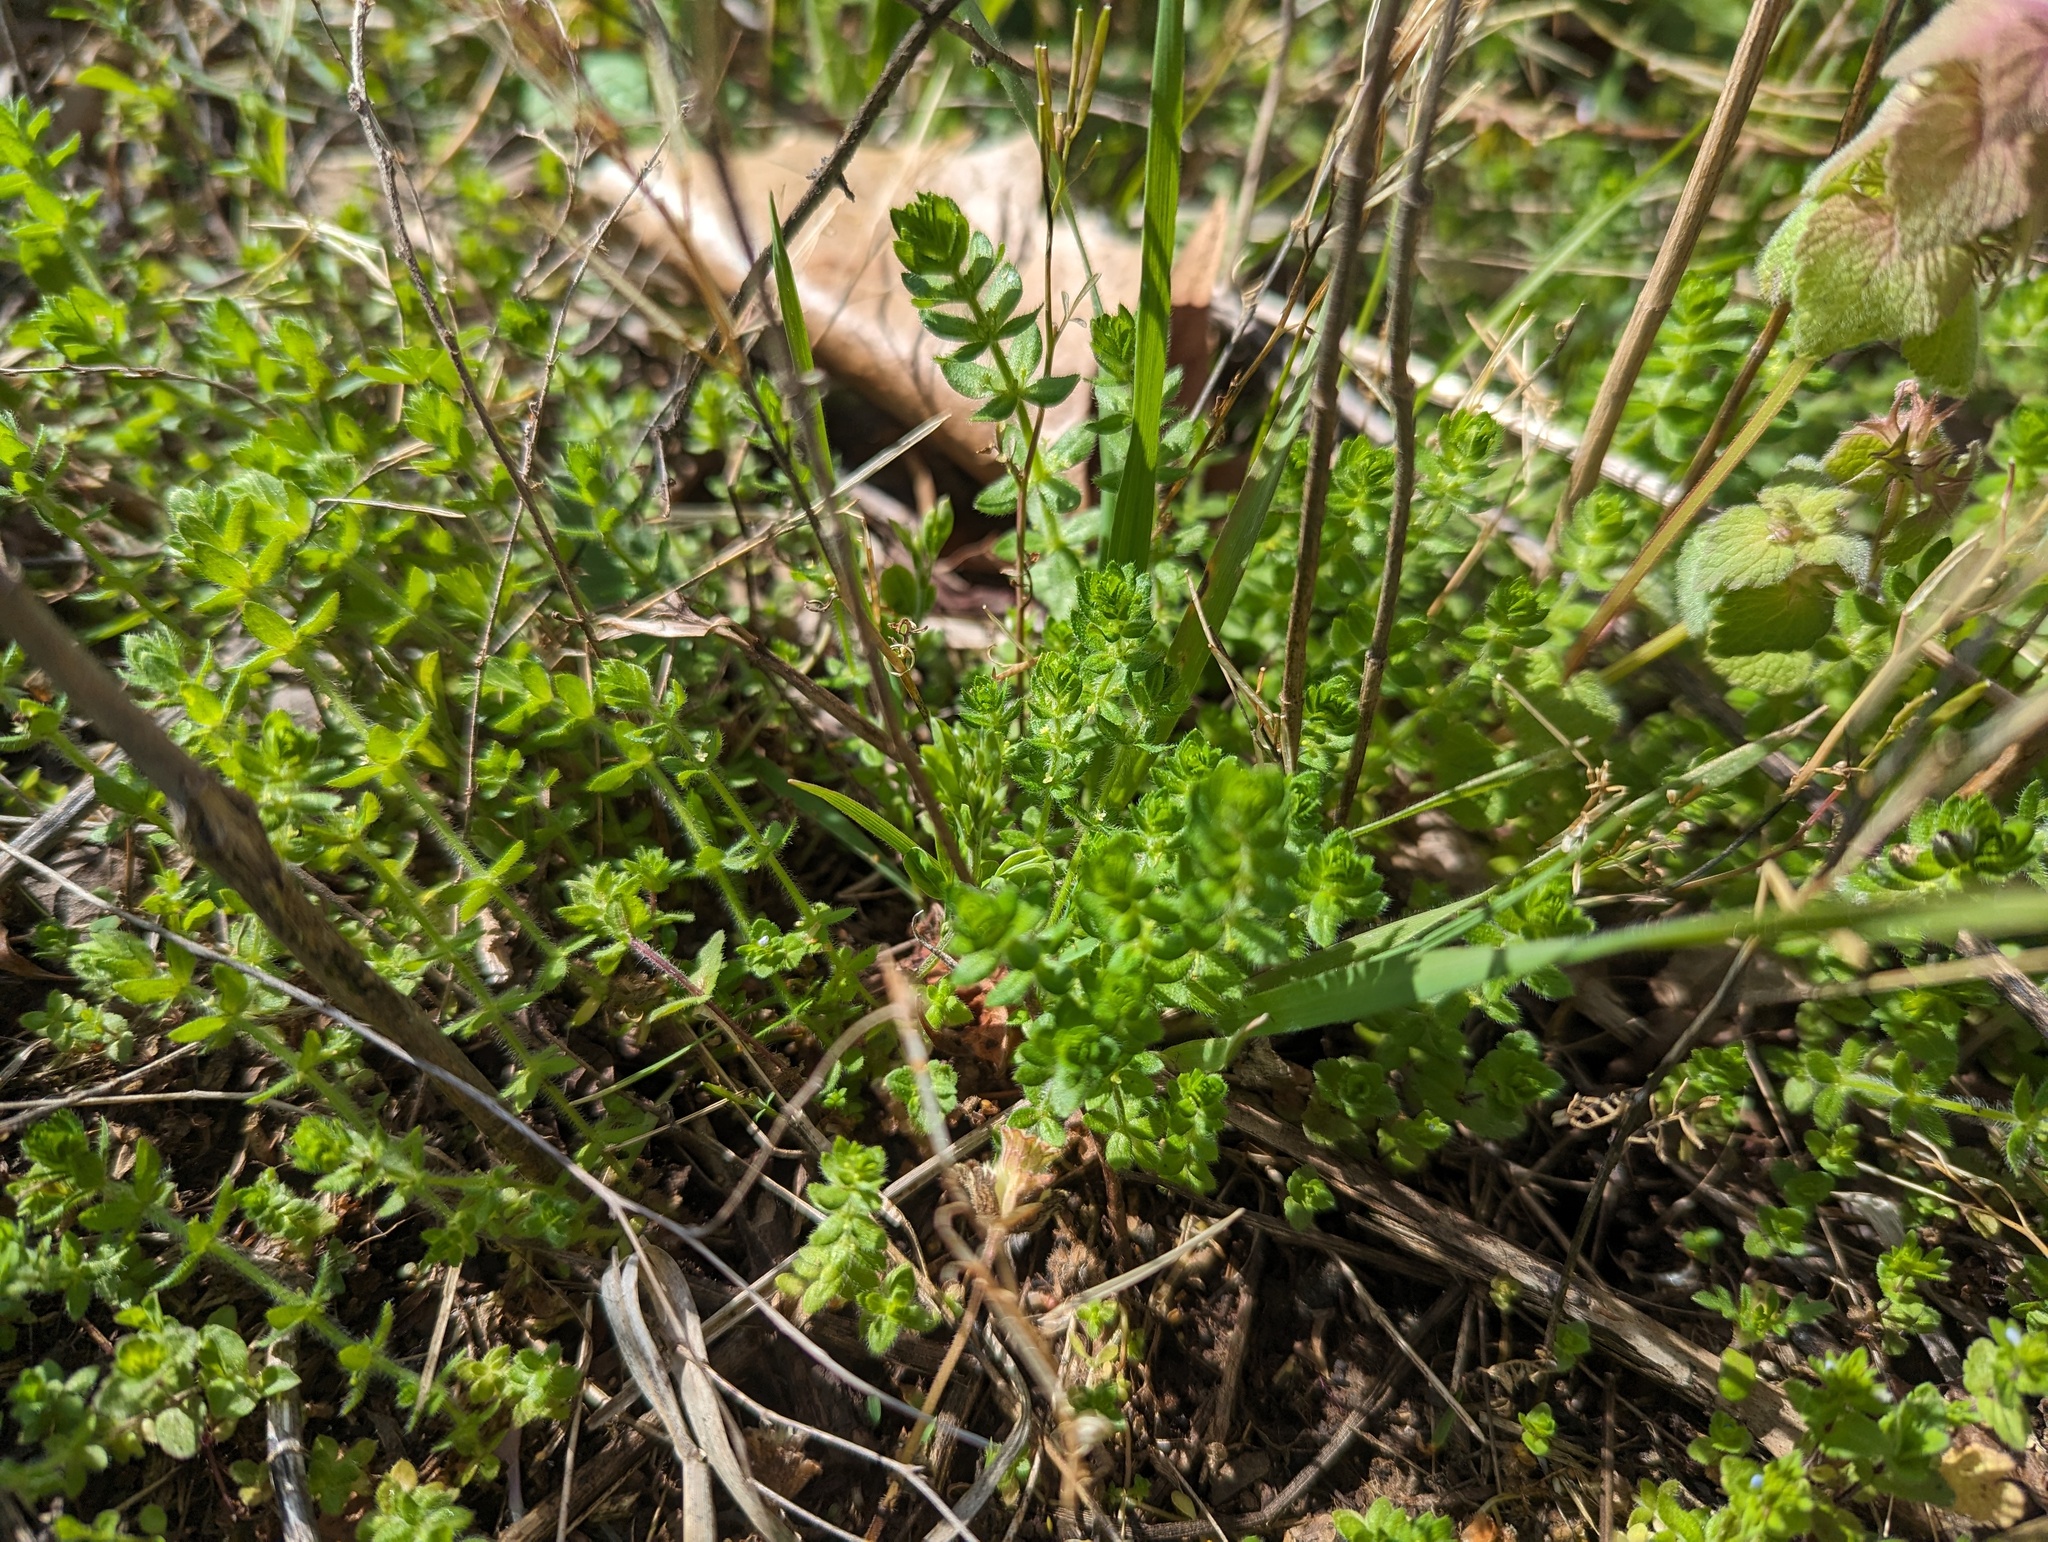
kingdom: Plantae
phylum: Tracheophyta
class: Magnoliopsida
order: Gentianales
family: Rubiaceae
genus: Cruciata
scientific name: Cruciata pedemontana
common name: Piedmont bedstraw
